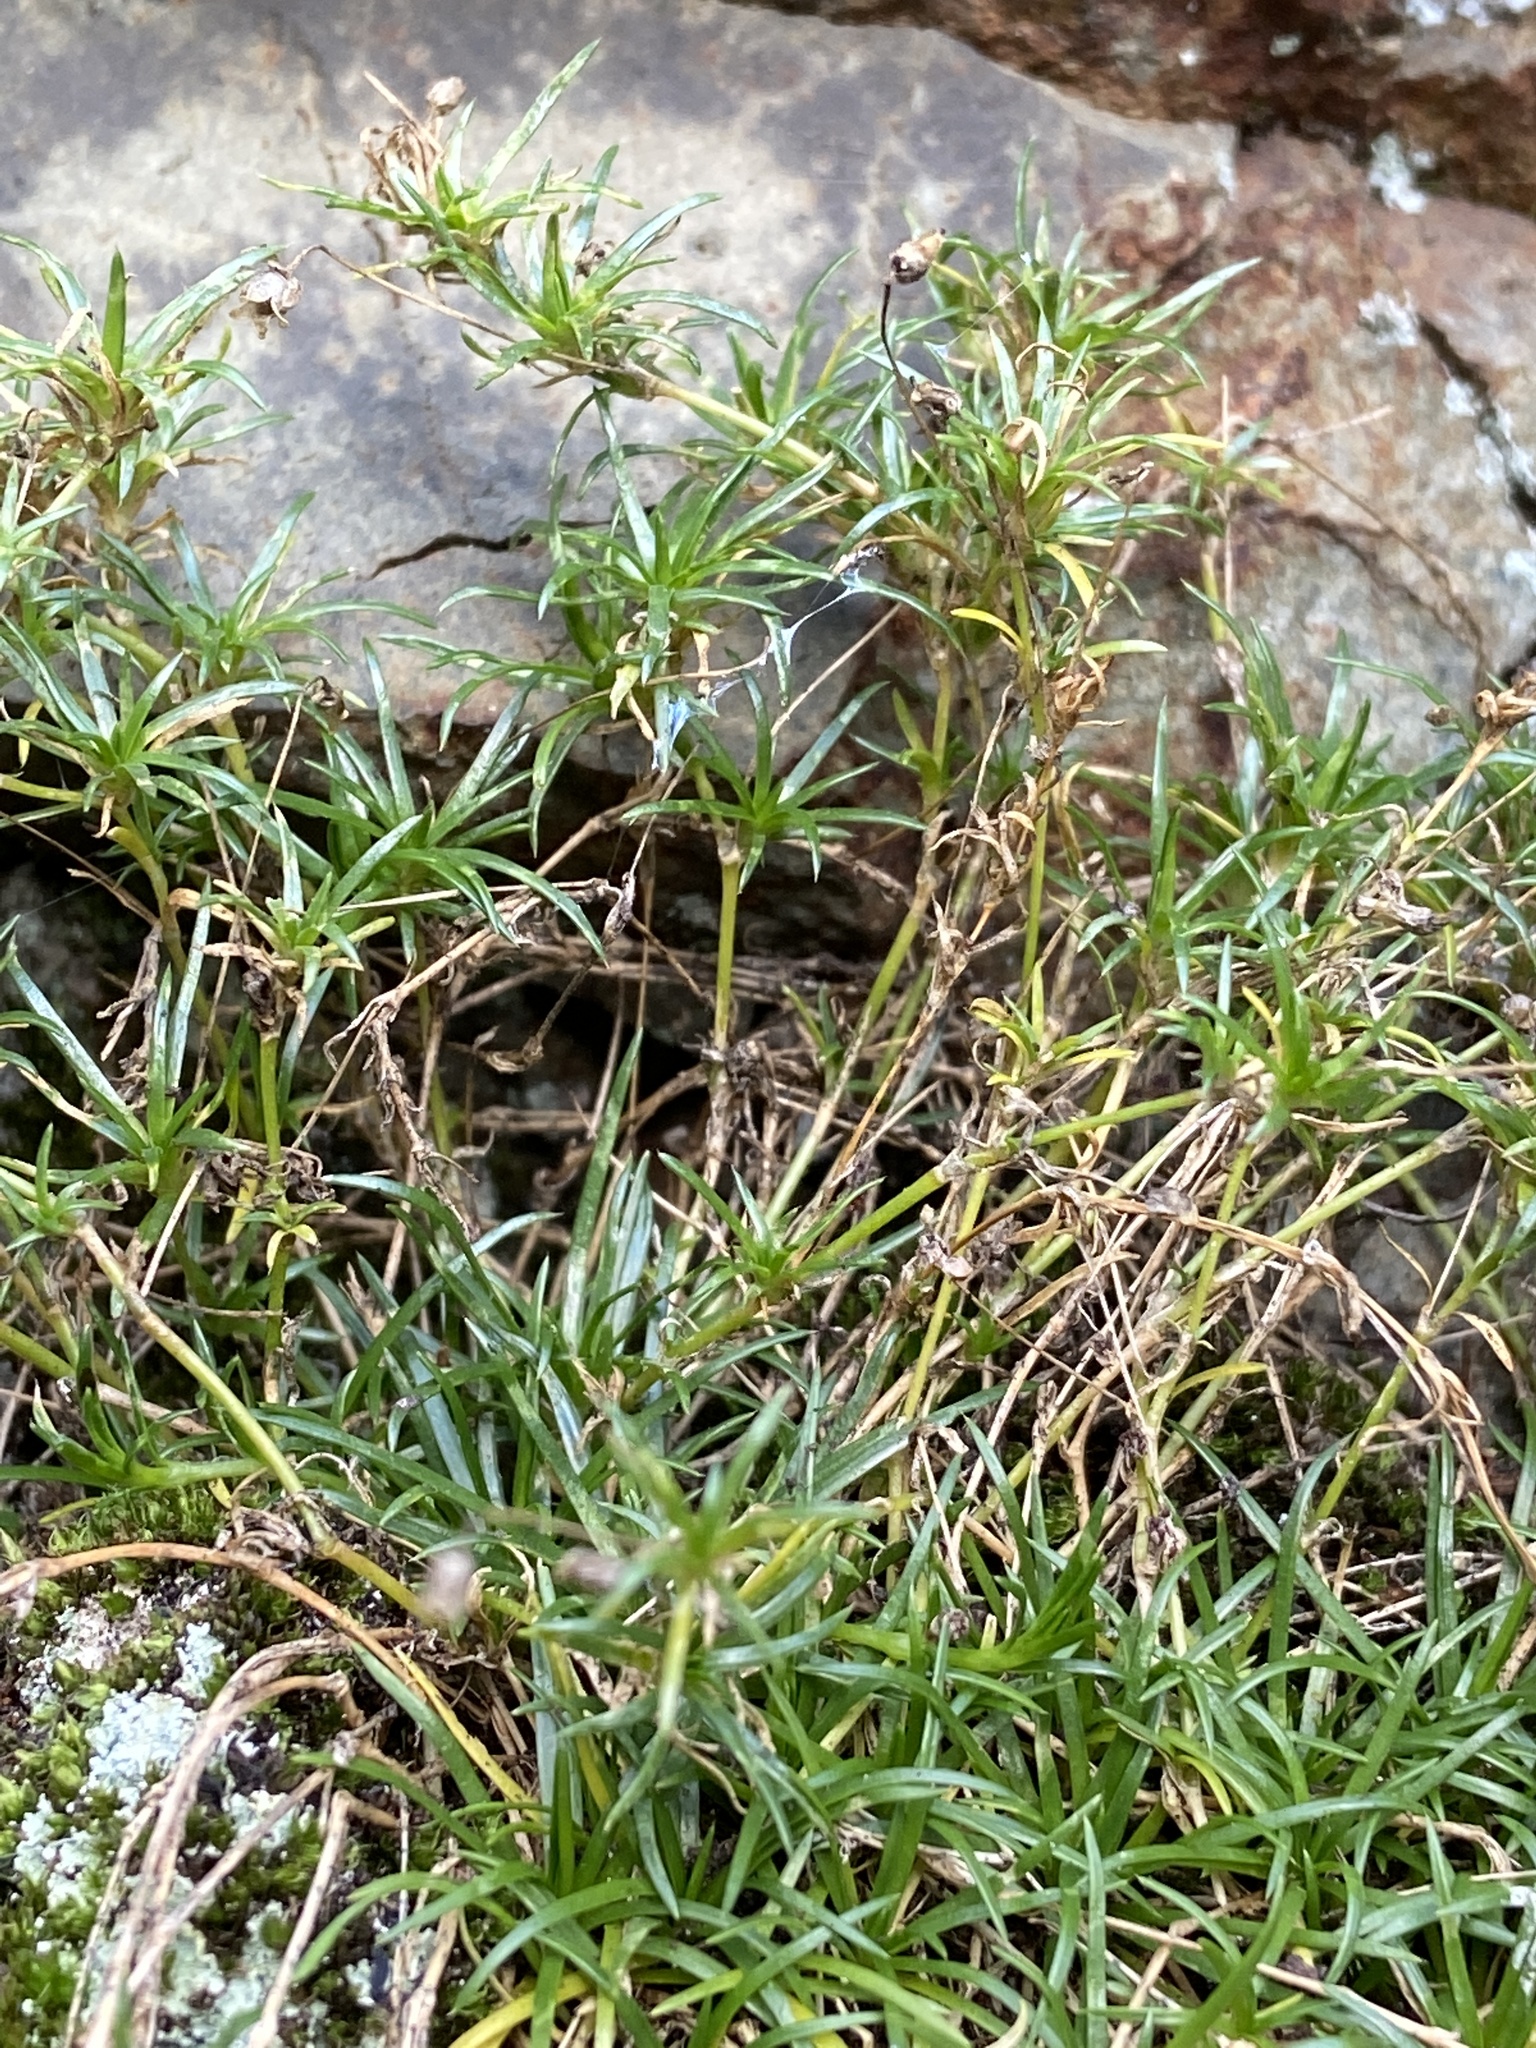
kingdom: Plantae
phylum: Tracheophyta
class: Magnoliopsida
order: Caryophyllales
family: Caryophyllaceae
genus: Sagina
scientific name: Sagina procumbens
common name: Procumbent pearlwort
